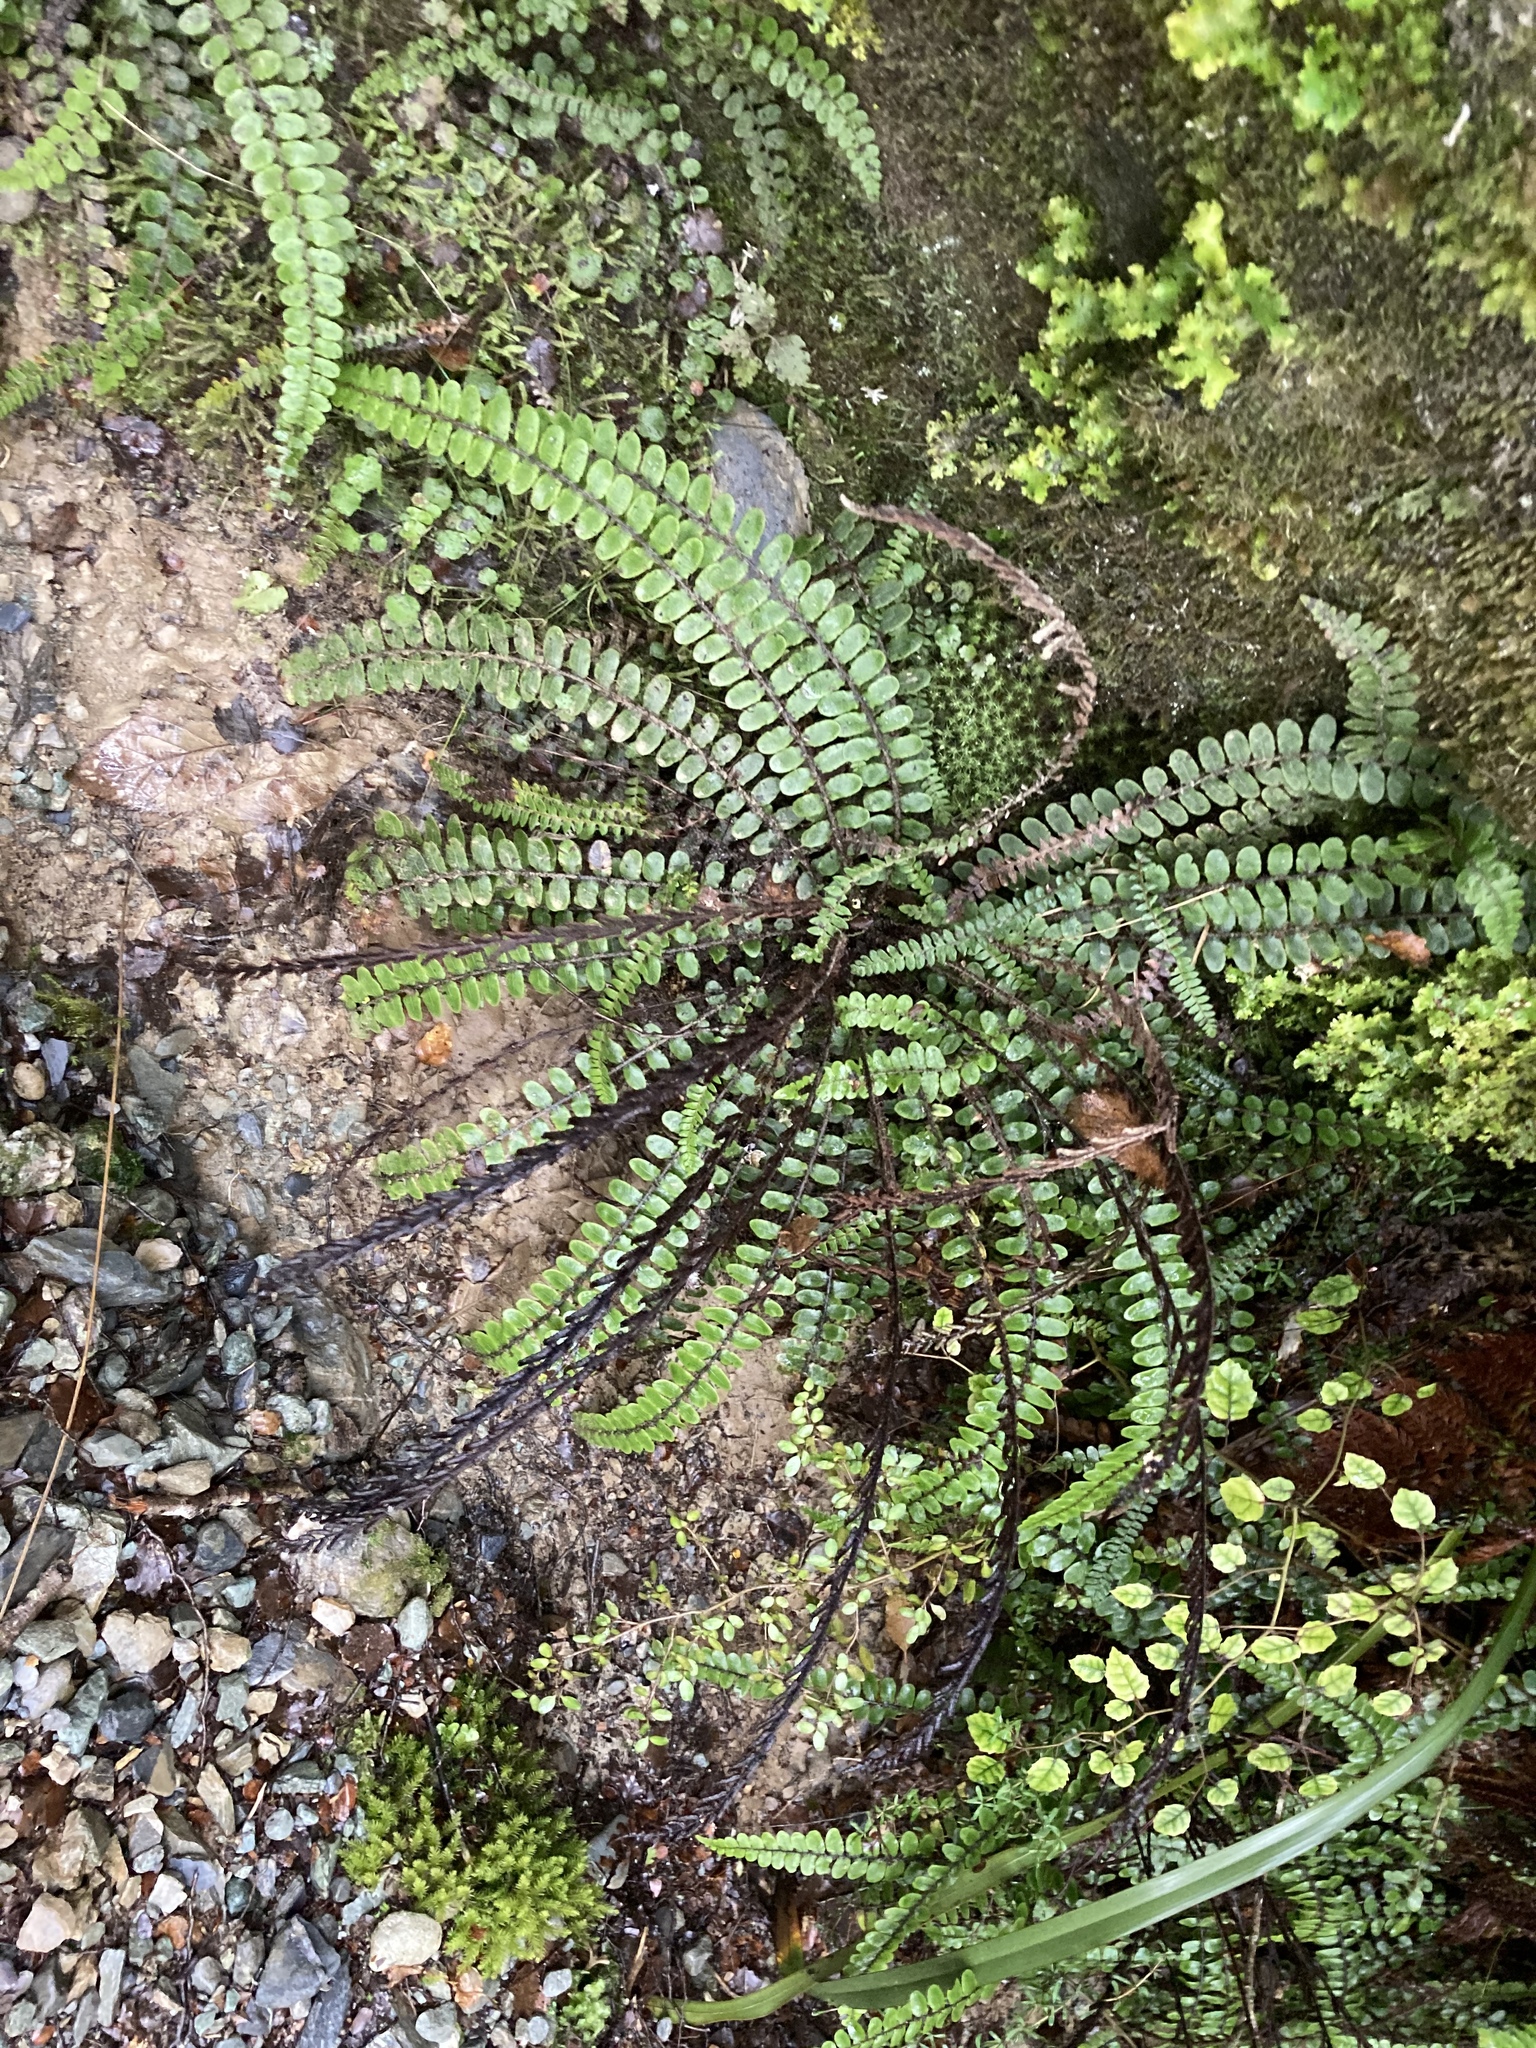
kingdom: Plantae
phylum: Tracheophyta
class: Polypodiopsida
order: Polypodiales
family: Blechnaceae
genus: Cranfillia
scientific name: Cranfillia fluviatilis
